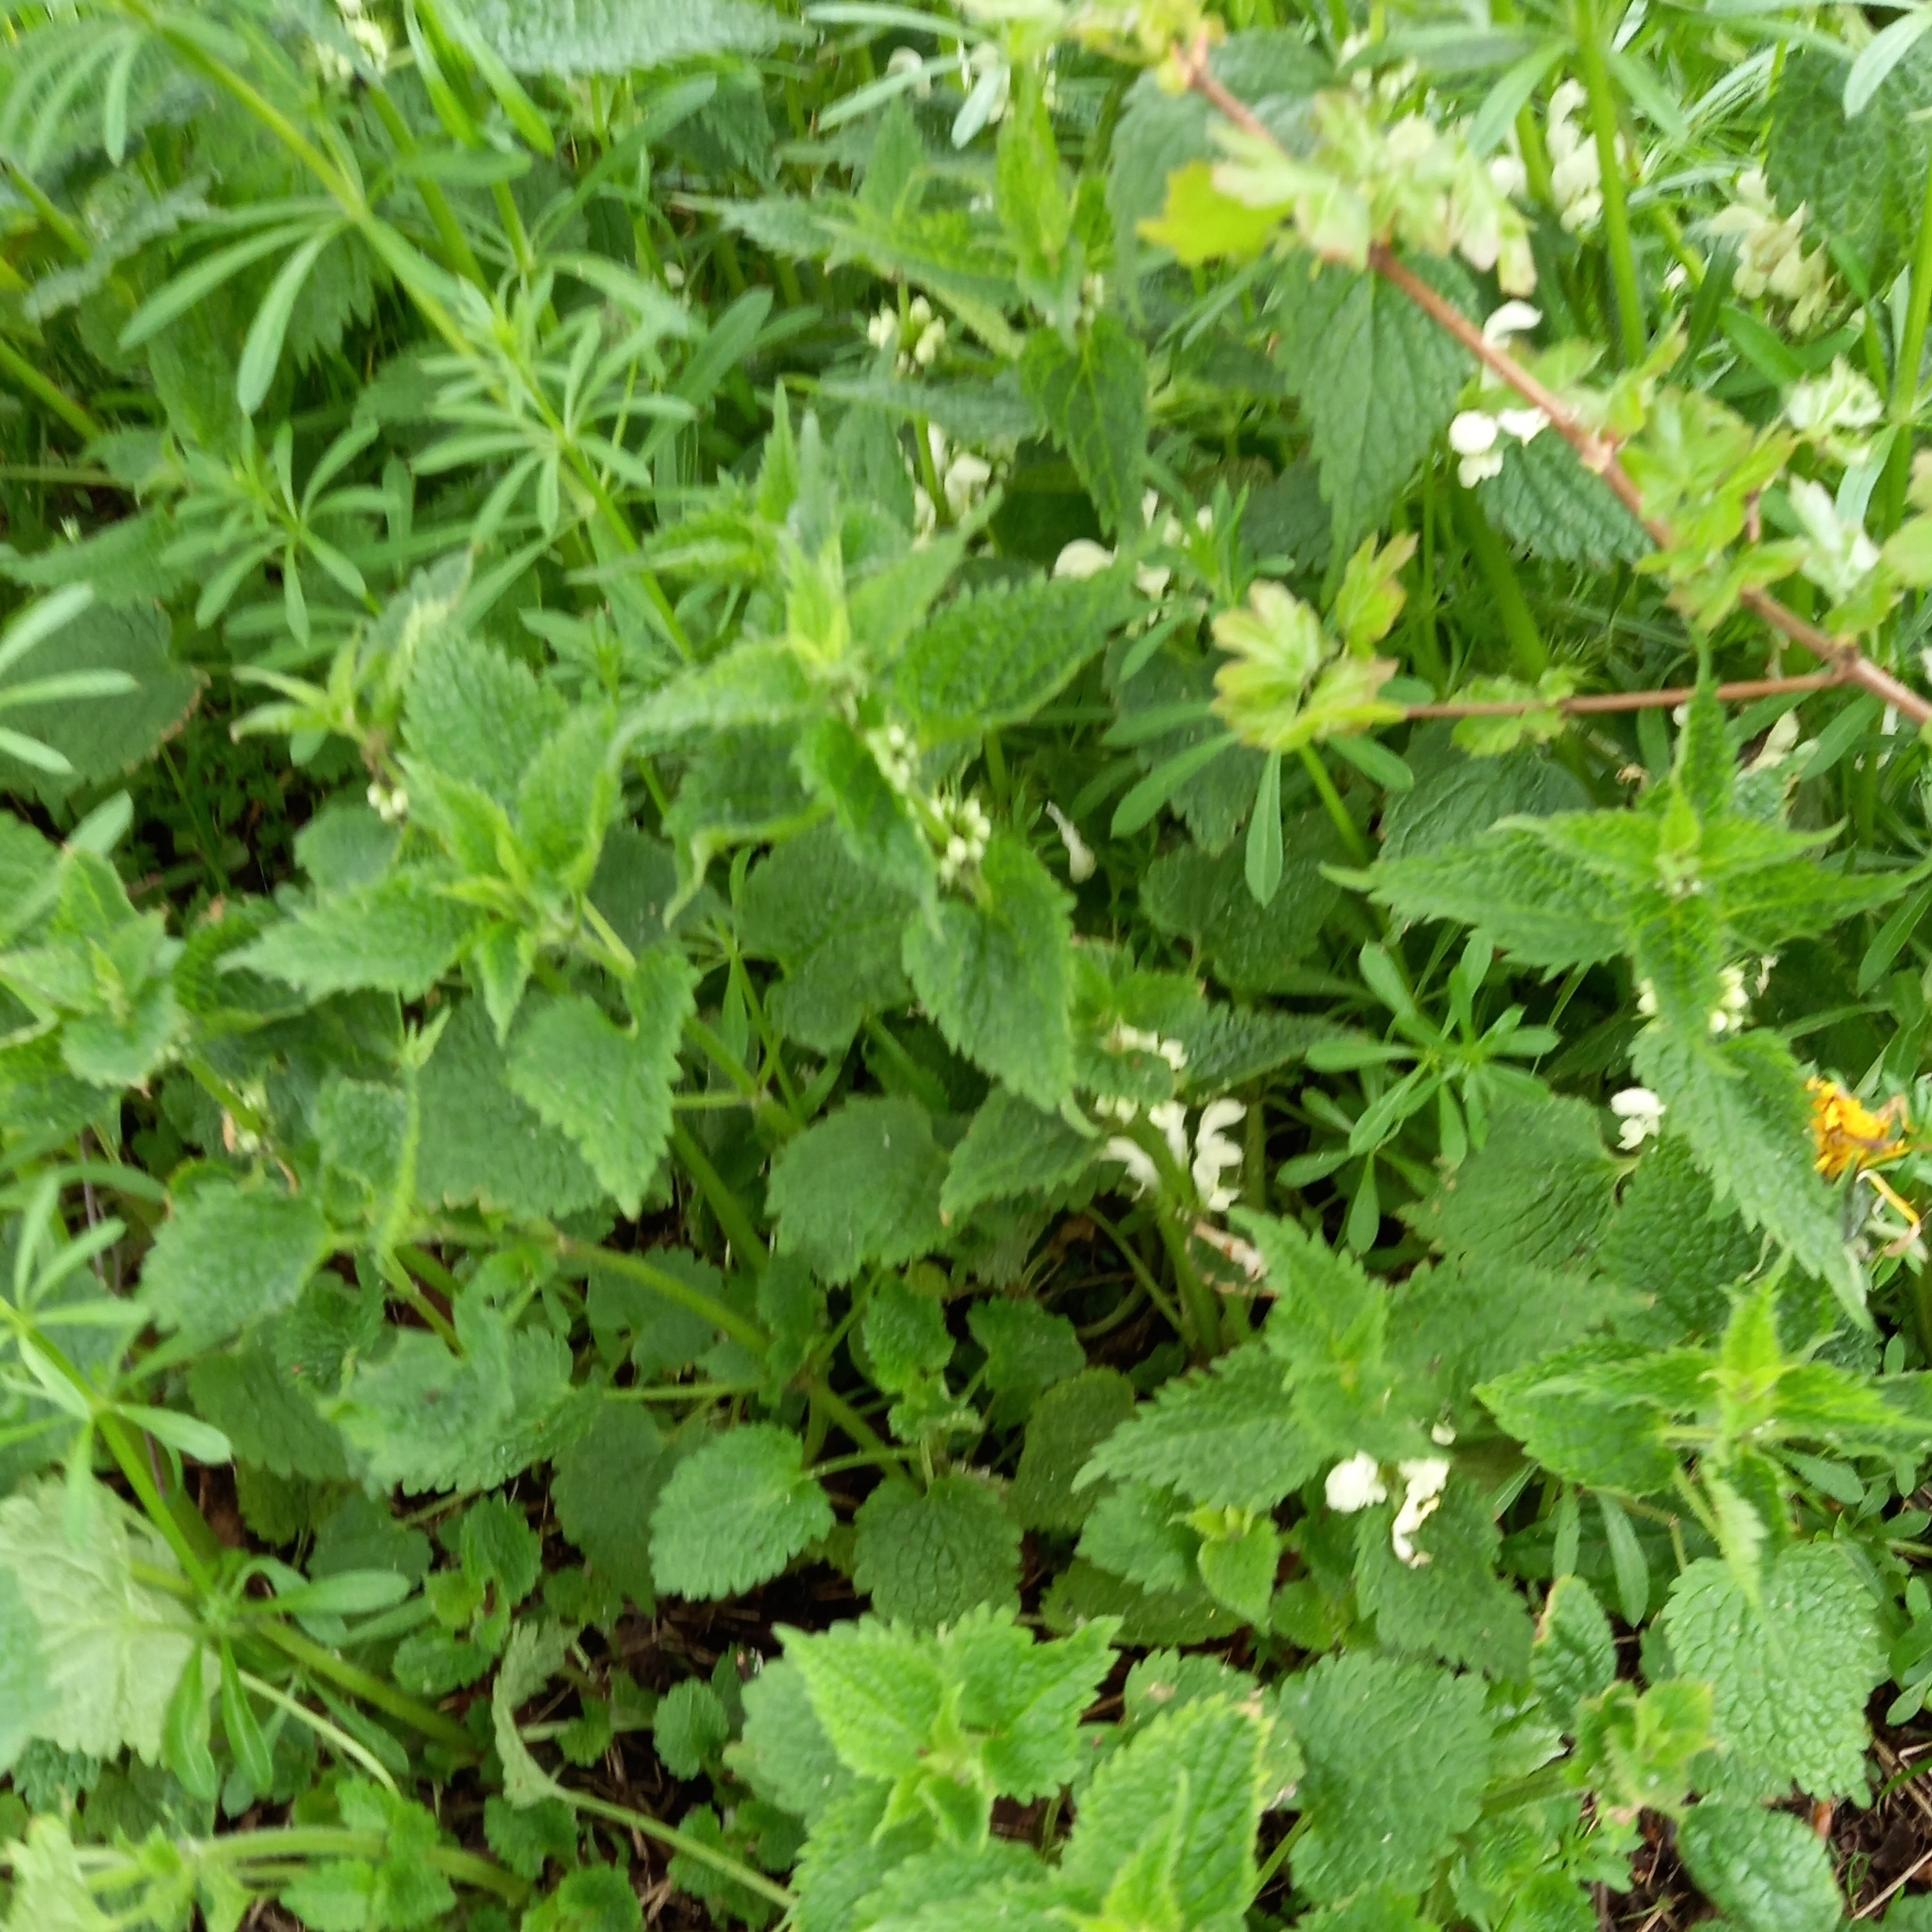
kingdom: Plantae
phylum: Tracheophyta
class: Magnoliopsida
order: Lamiales
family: Lamiaceae
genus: Lamium
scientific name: Lamium album
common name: White dead-nettle
